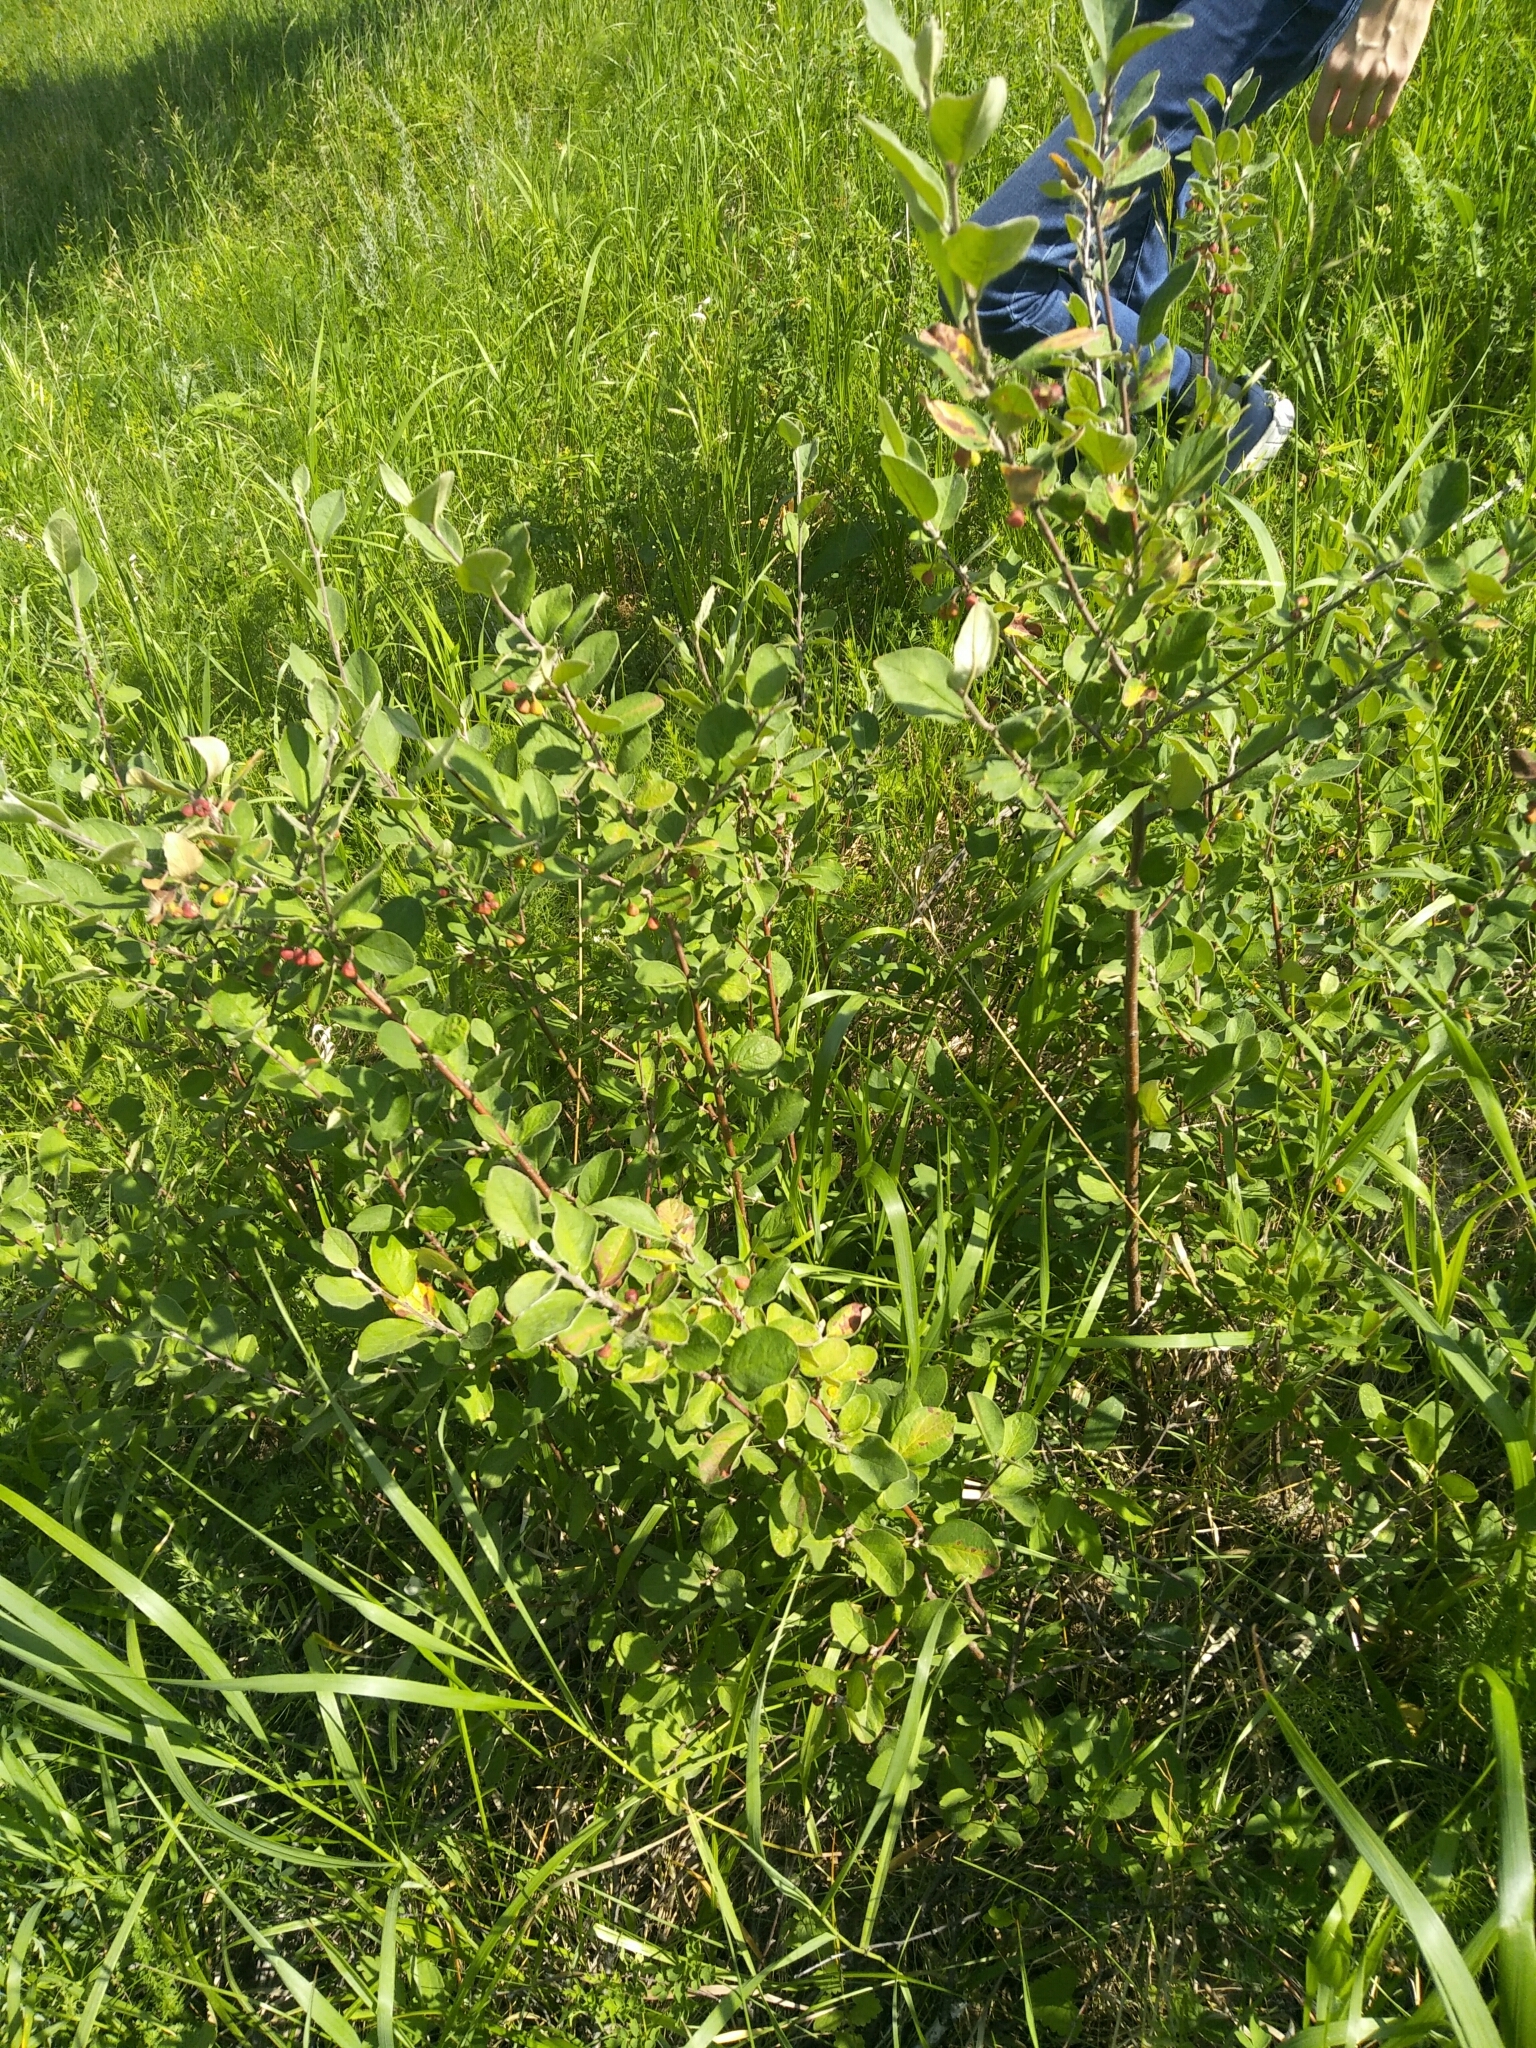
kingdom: Plantae
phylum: Tracheophyta
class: Magnoliopsida
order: Rosales
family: Rosaceae
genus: Cotoneaster
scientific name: Cotoneaster melanocarpus
